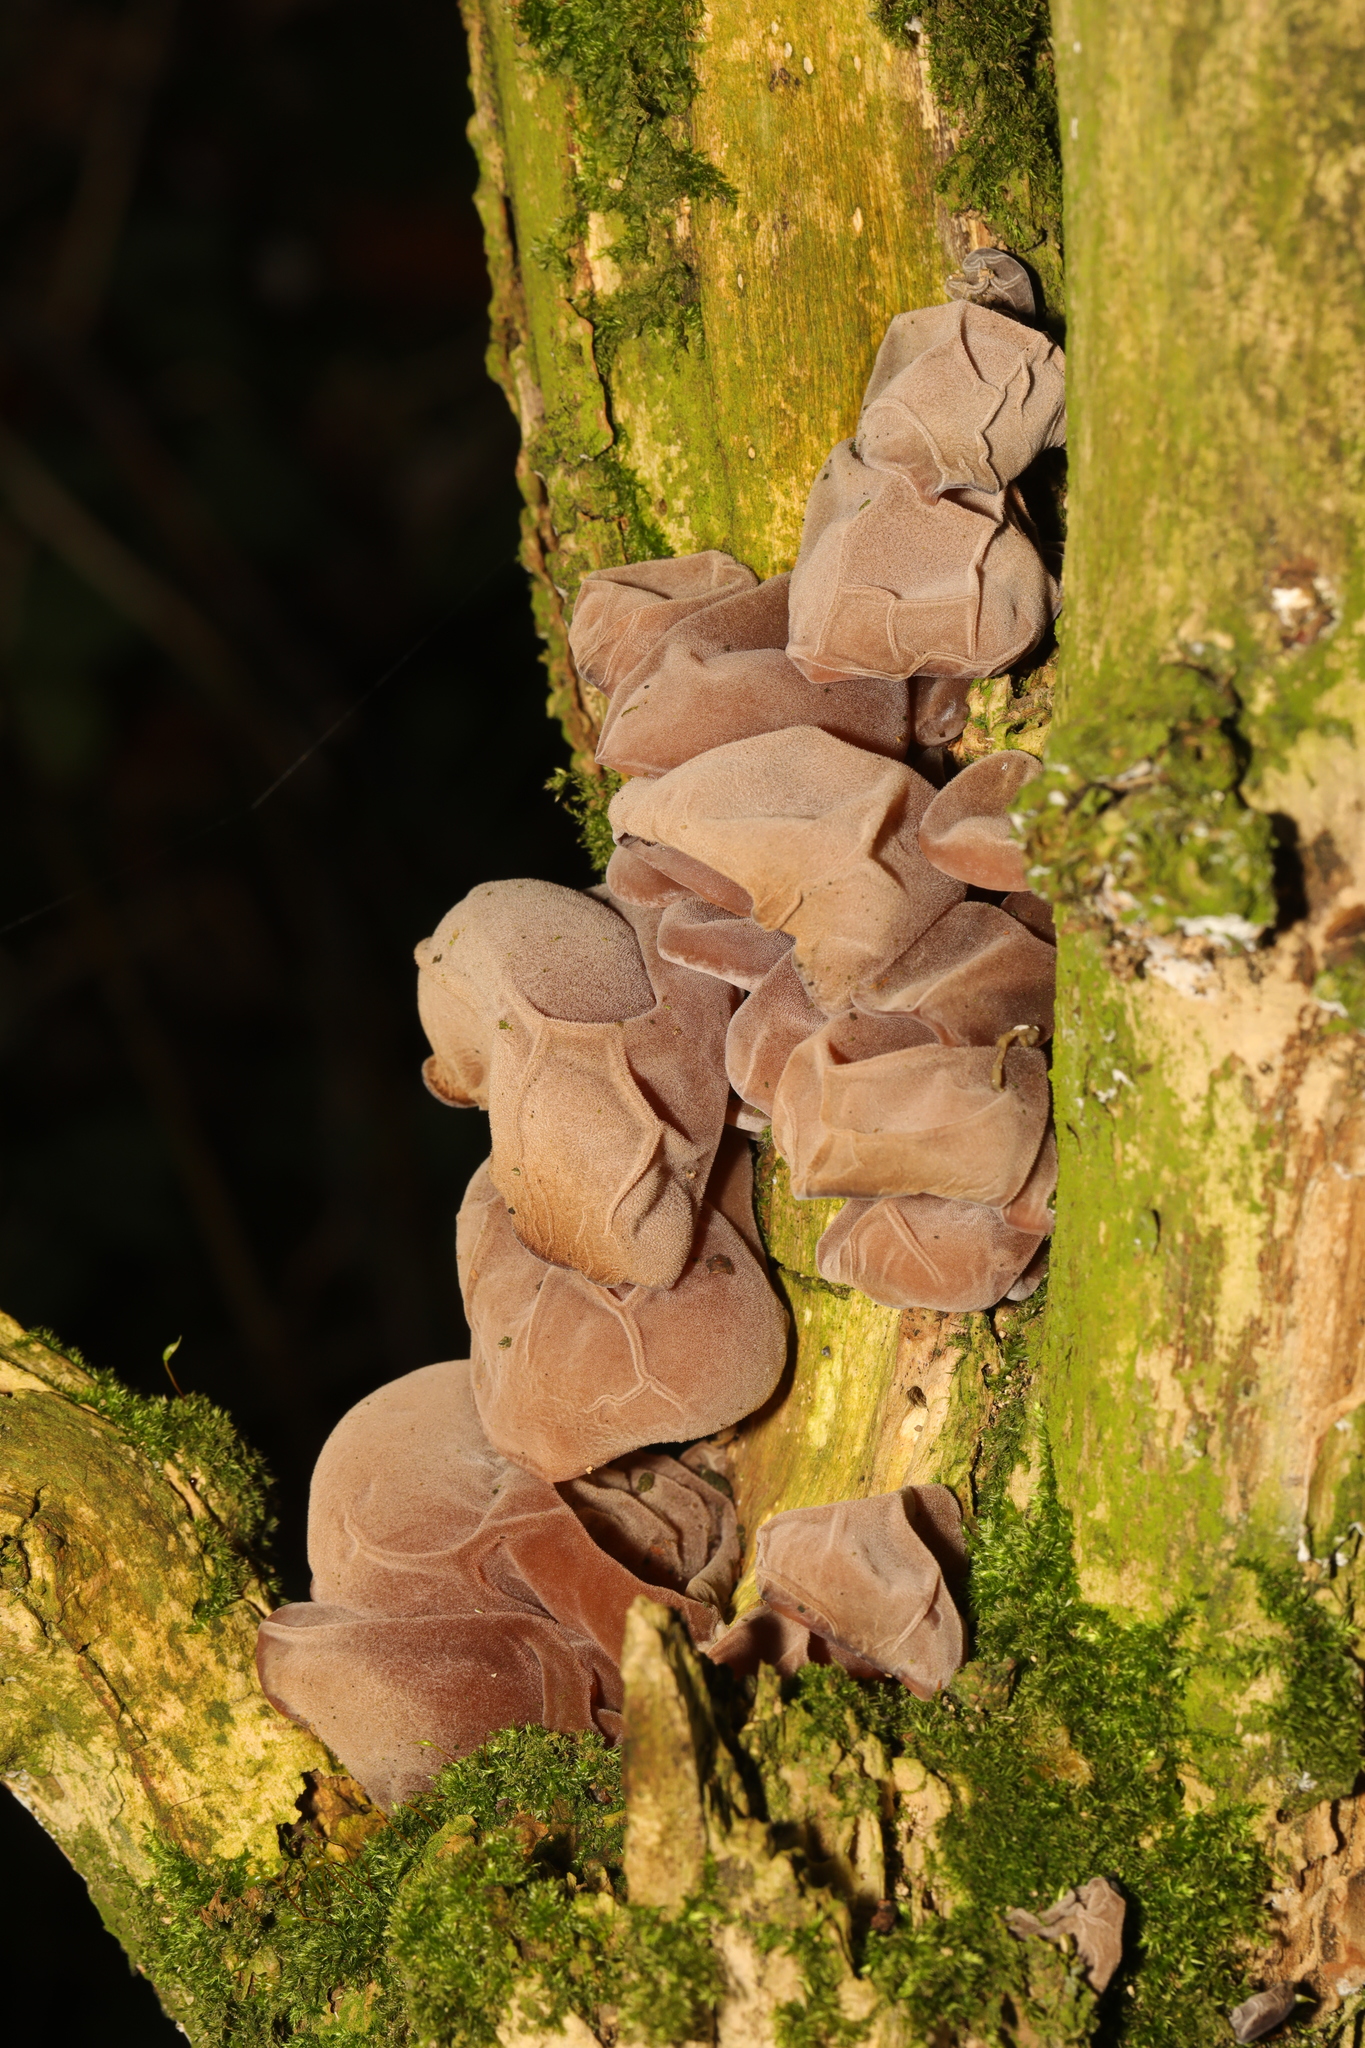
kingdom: Fungi
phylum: Basidiomycota
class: Agaricomycetes
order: Auriculariales
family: Auriculariaceae
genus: Auricularia
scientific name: Auricularia auricula-judae
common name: Jelly ear
